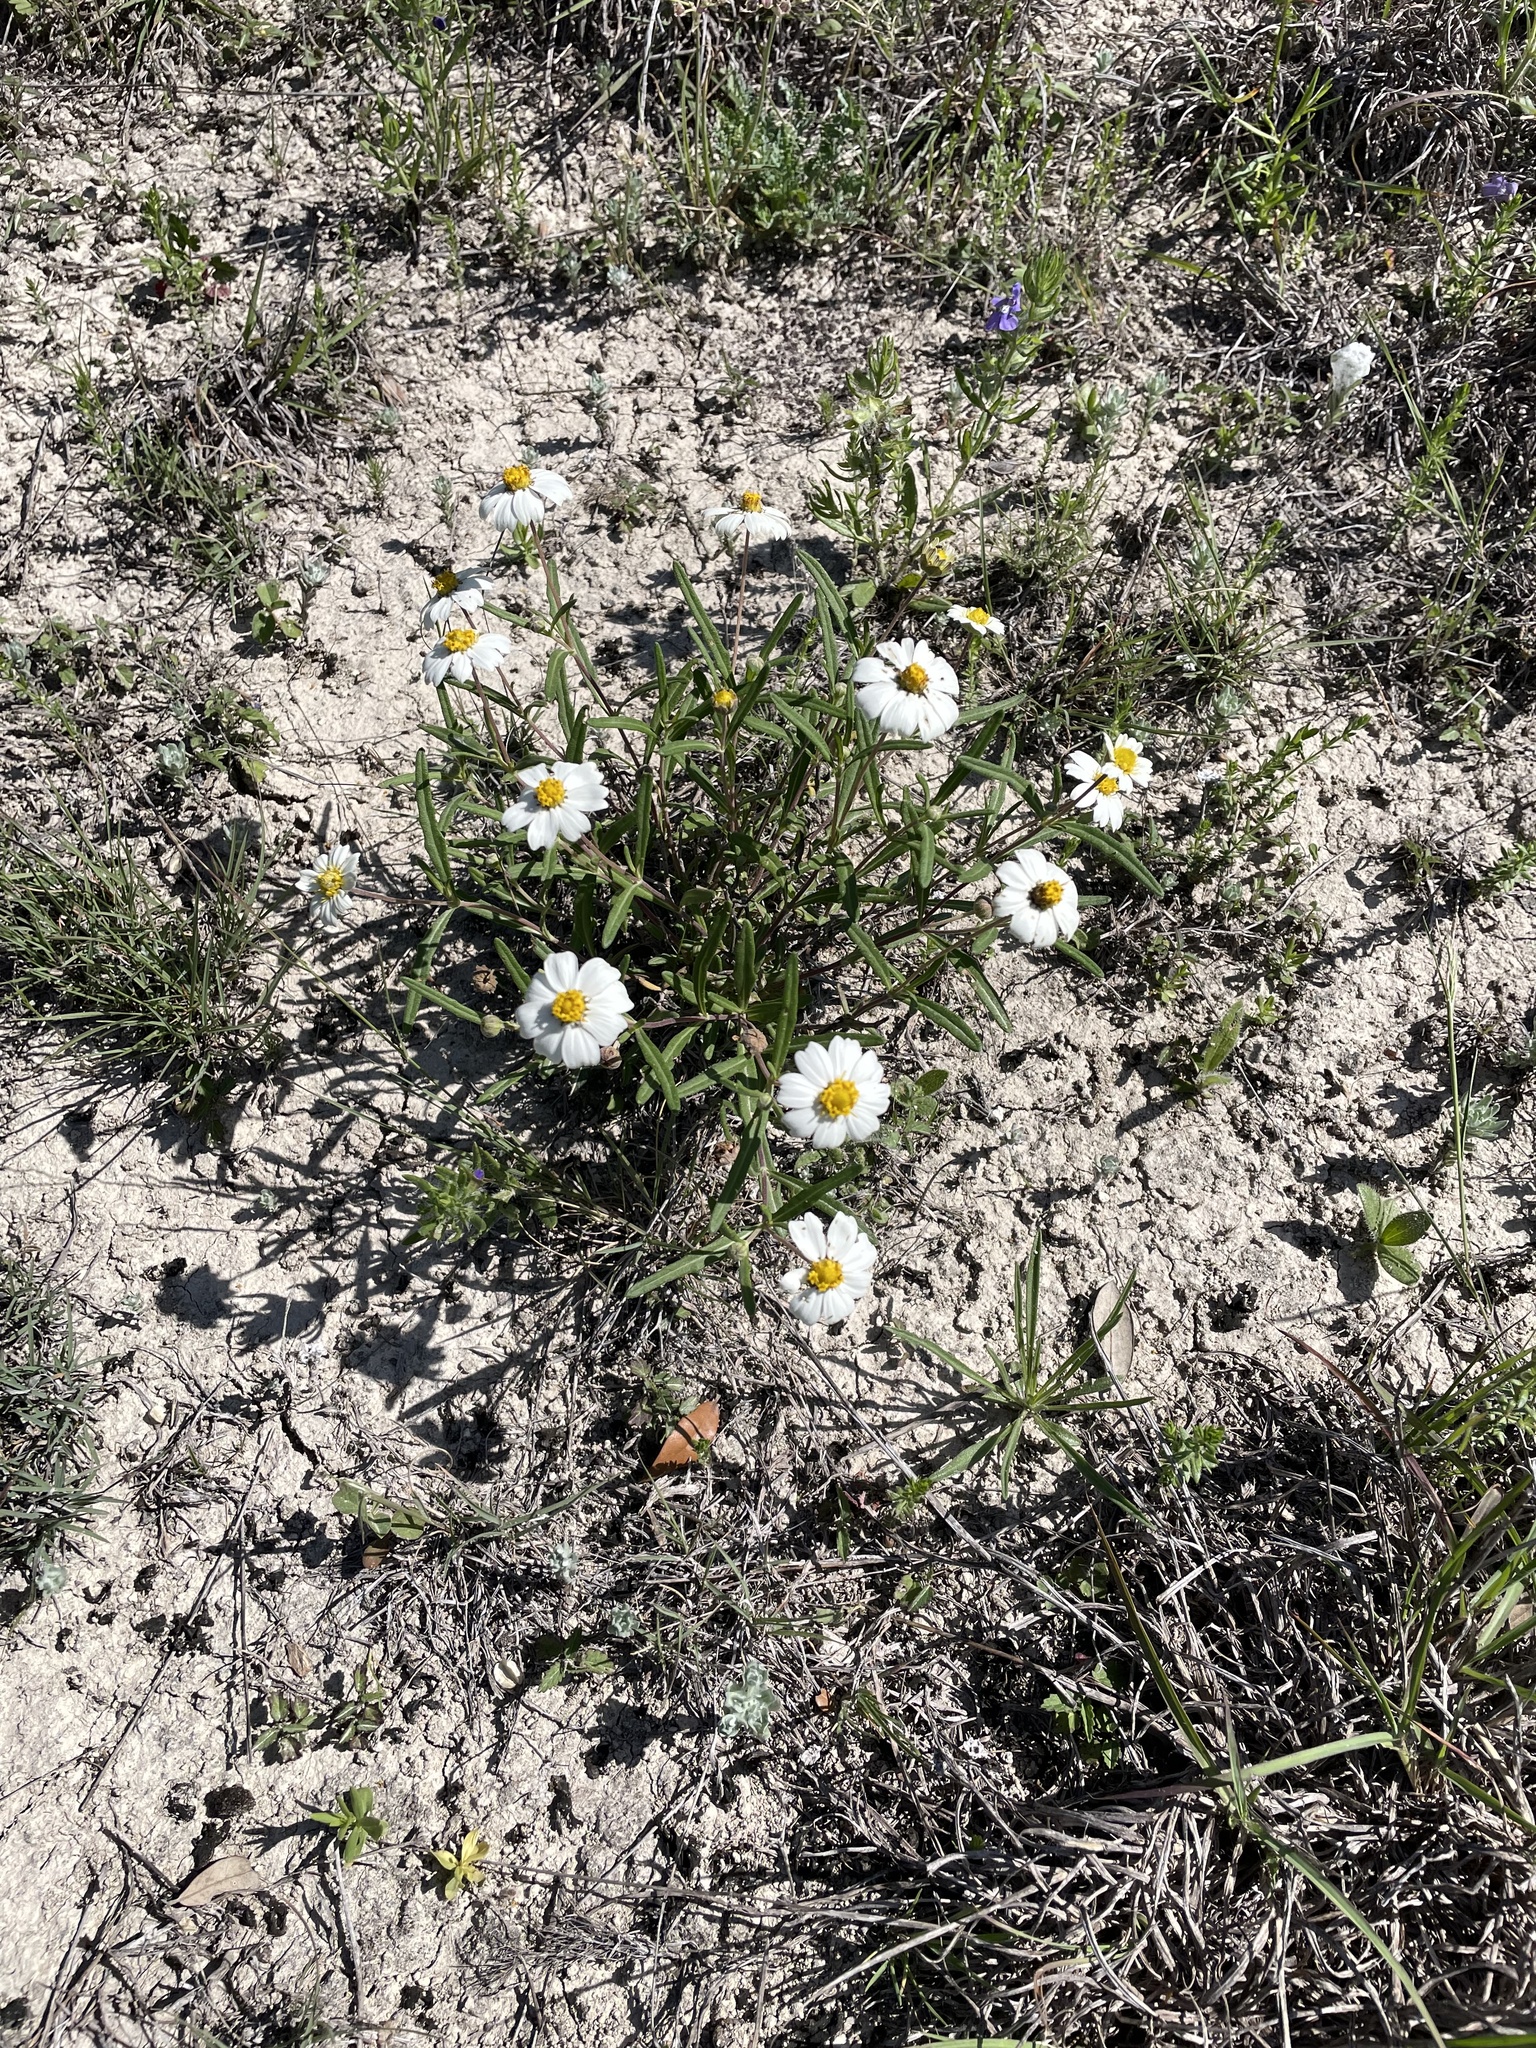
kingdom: Plantae
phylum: Tracheophyta
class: Magnoliopsida
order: Asterales
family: Asteraceae
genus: Melampodium
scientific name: Melampodium leucanthum
